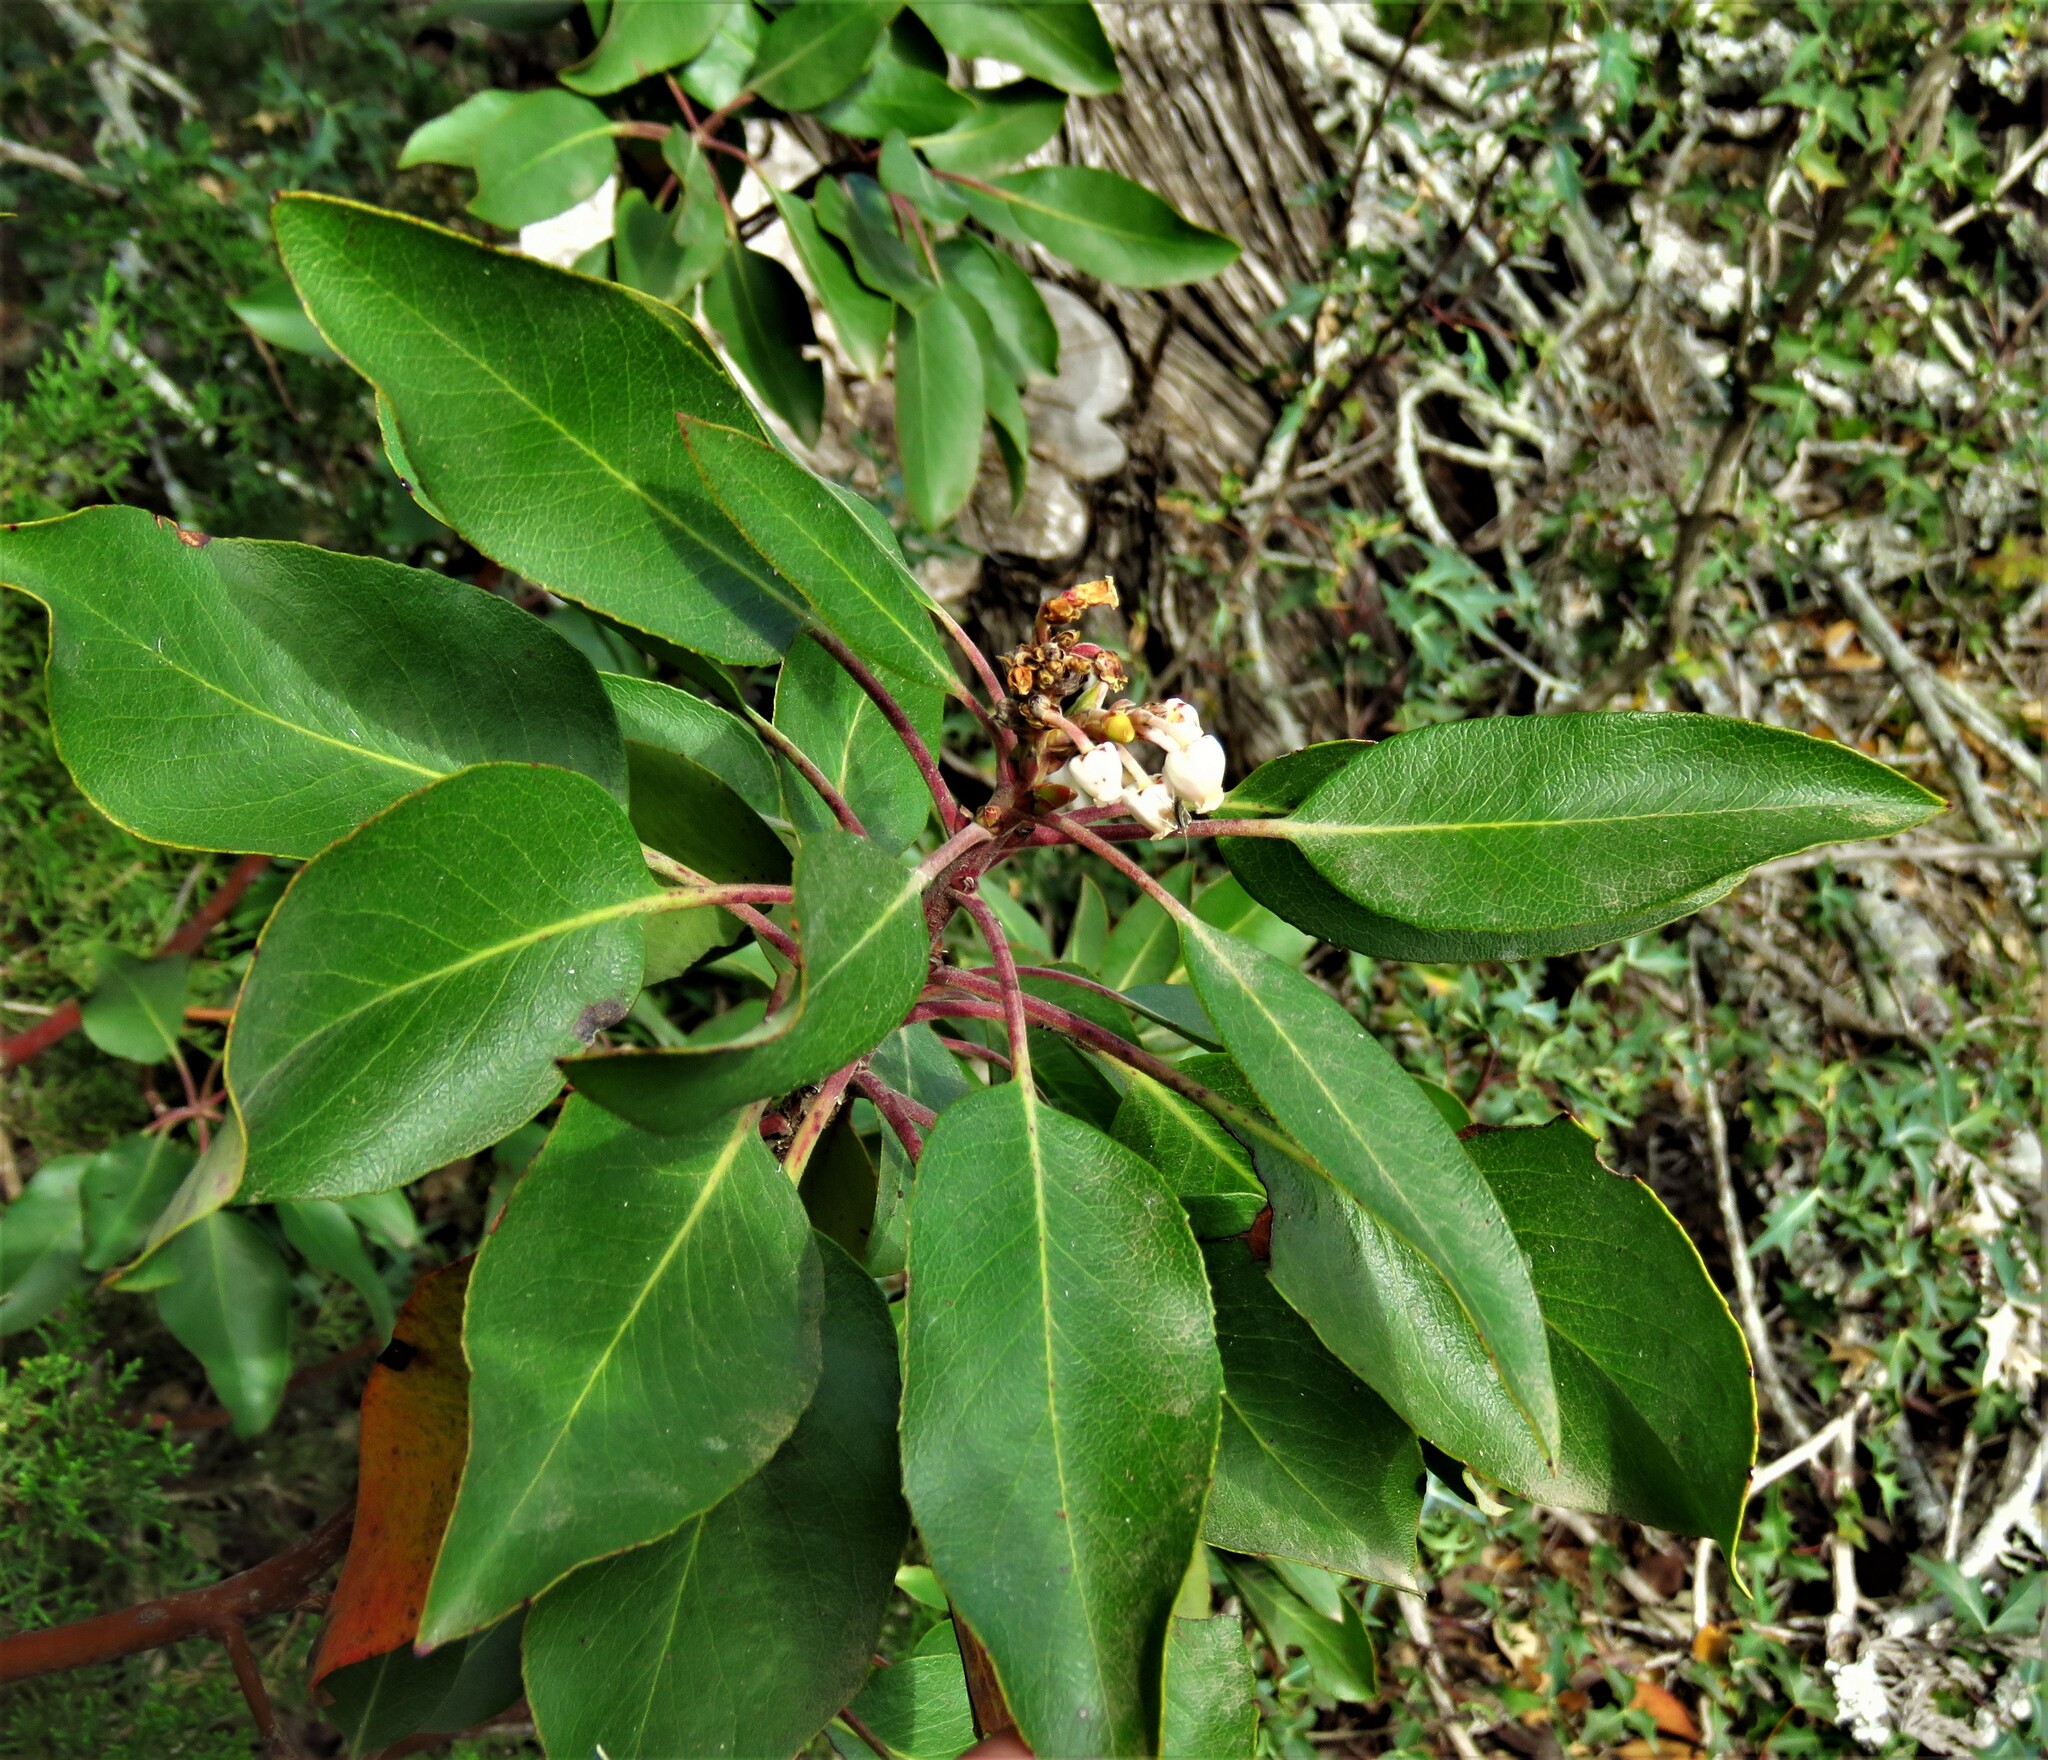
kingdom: Plantae
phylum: Tracheophyta
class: Magnoliopsida
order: Ericales
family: Ericaceae
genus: Arbutus
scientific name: Arbutus xalapensis
